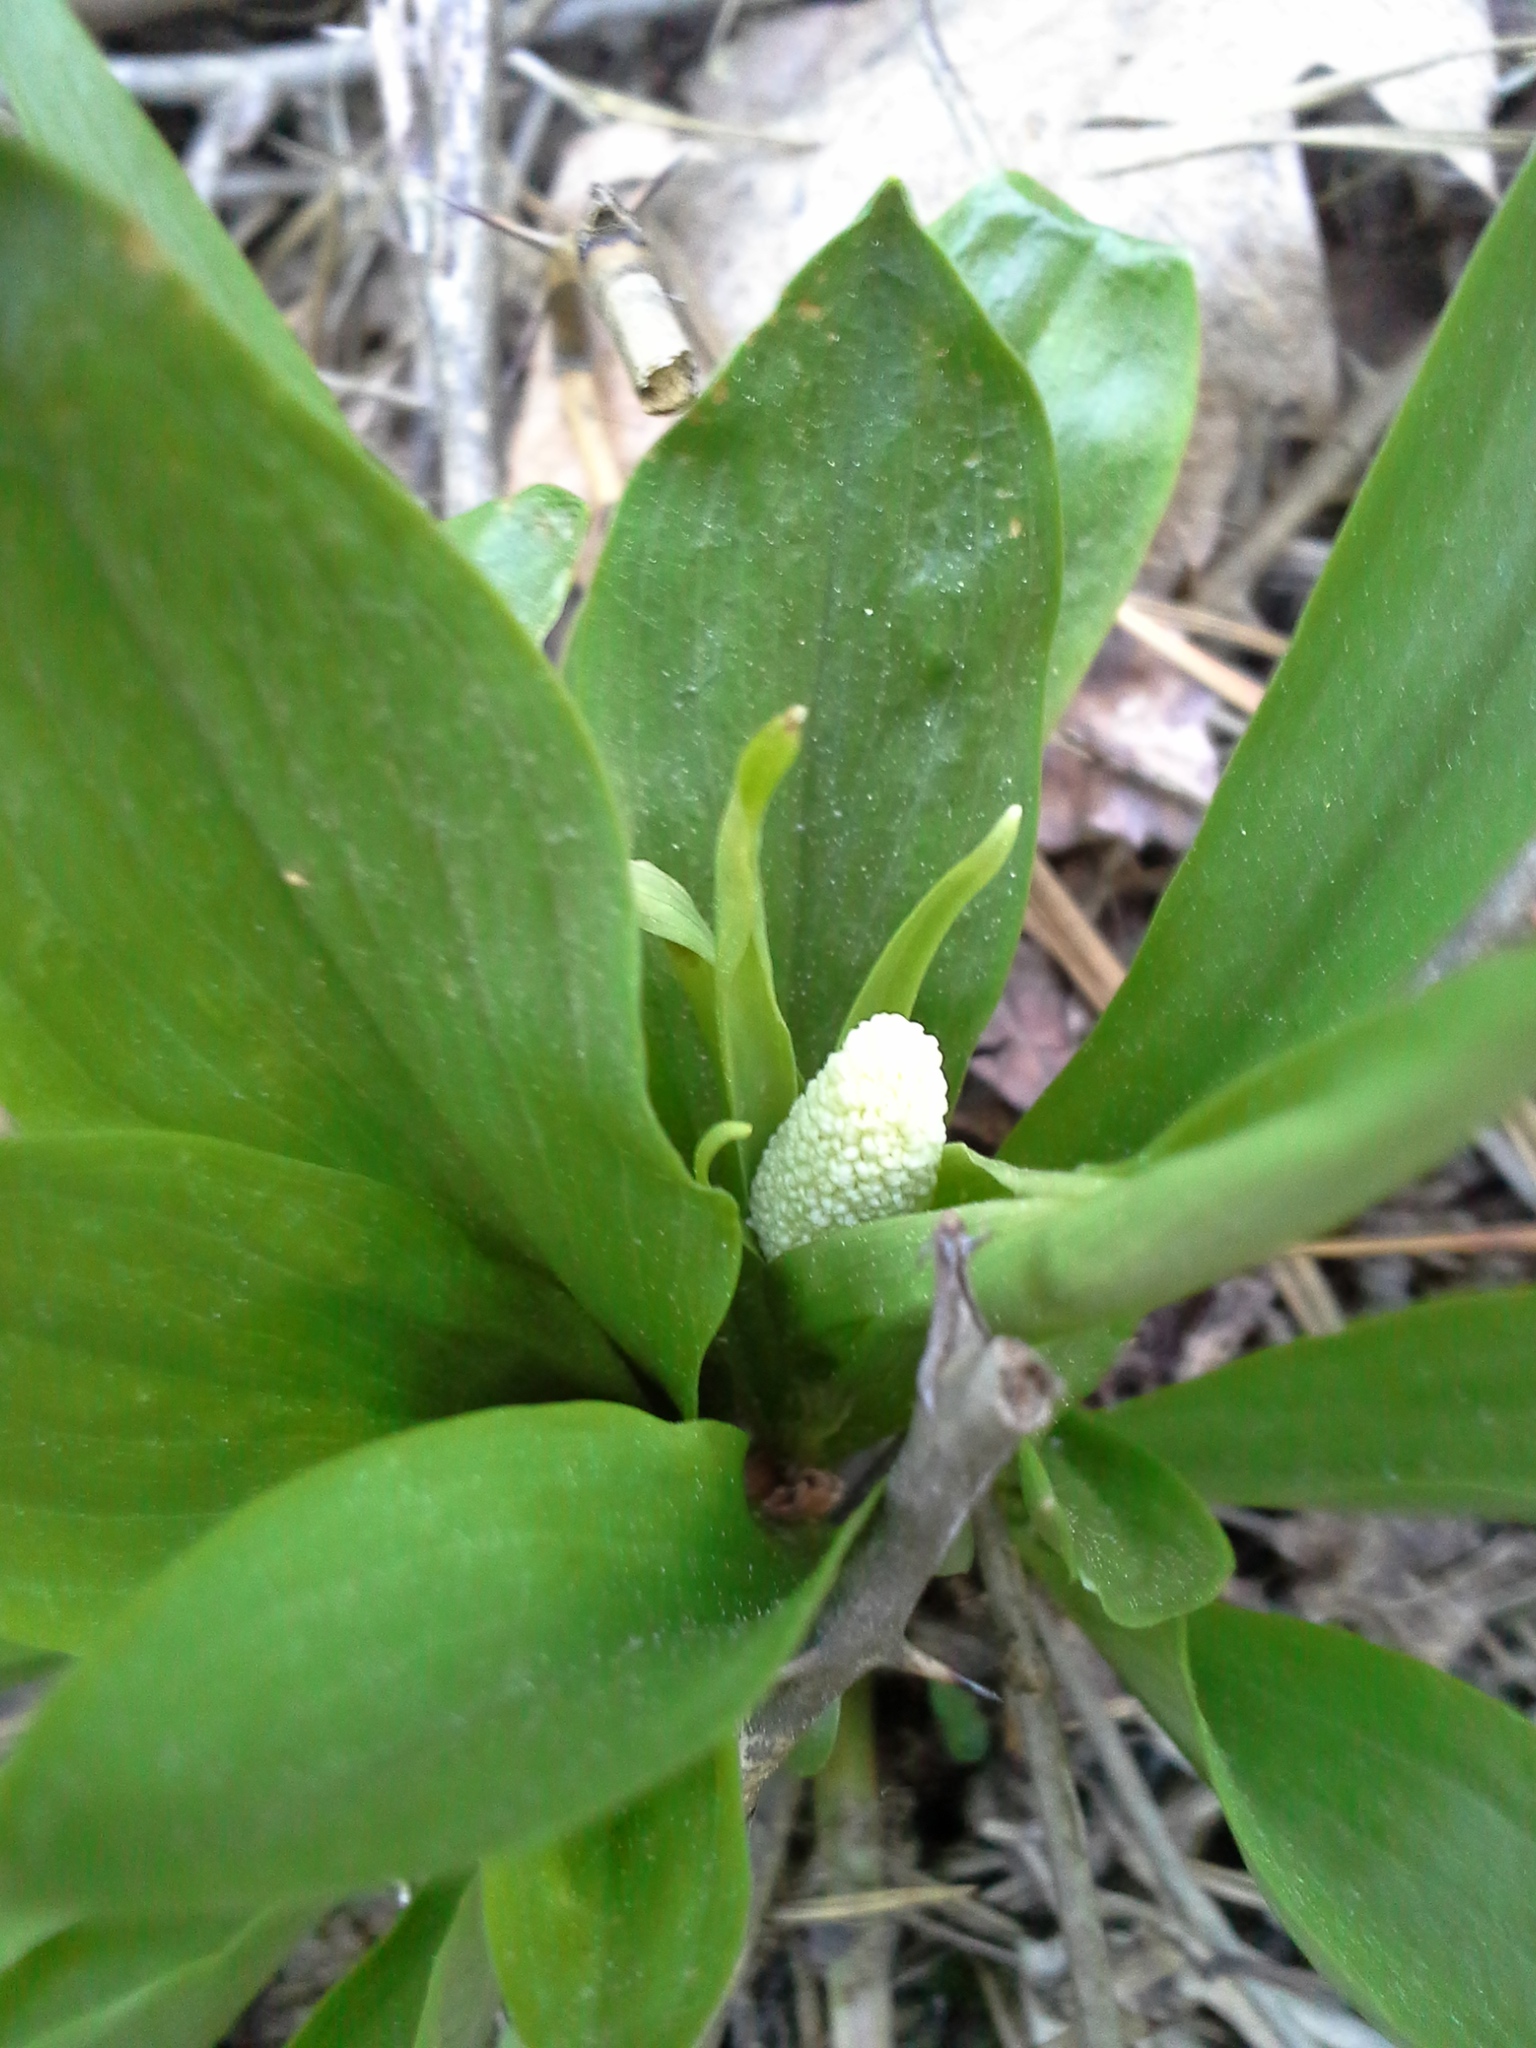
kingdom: Plantae
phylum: Tracheophyta
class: Liliopsida
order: Liliales
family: Melanthiaceae
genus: Chamaelirium
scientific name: Chamaelirium luteum
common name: Fairy-wand
